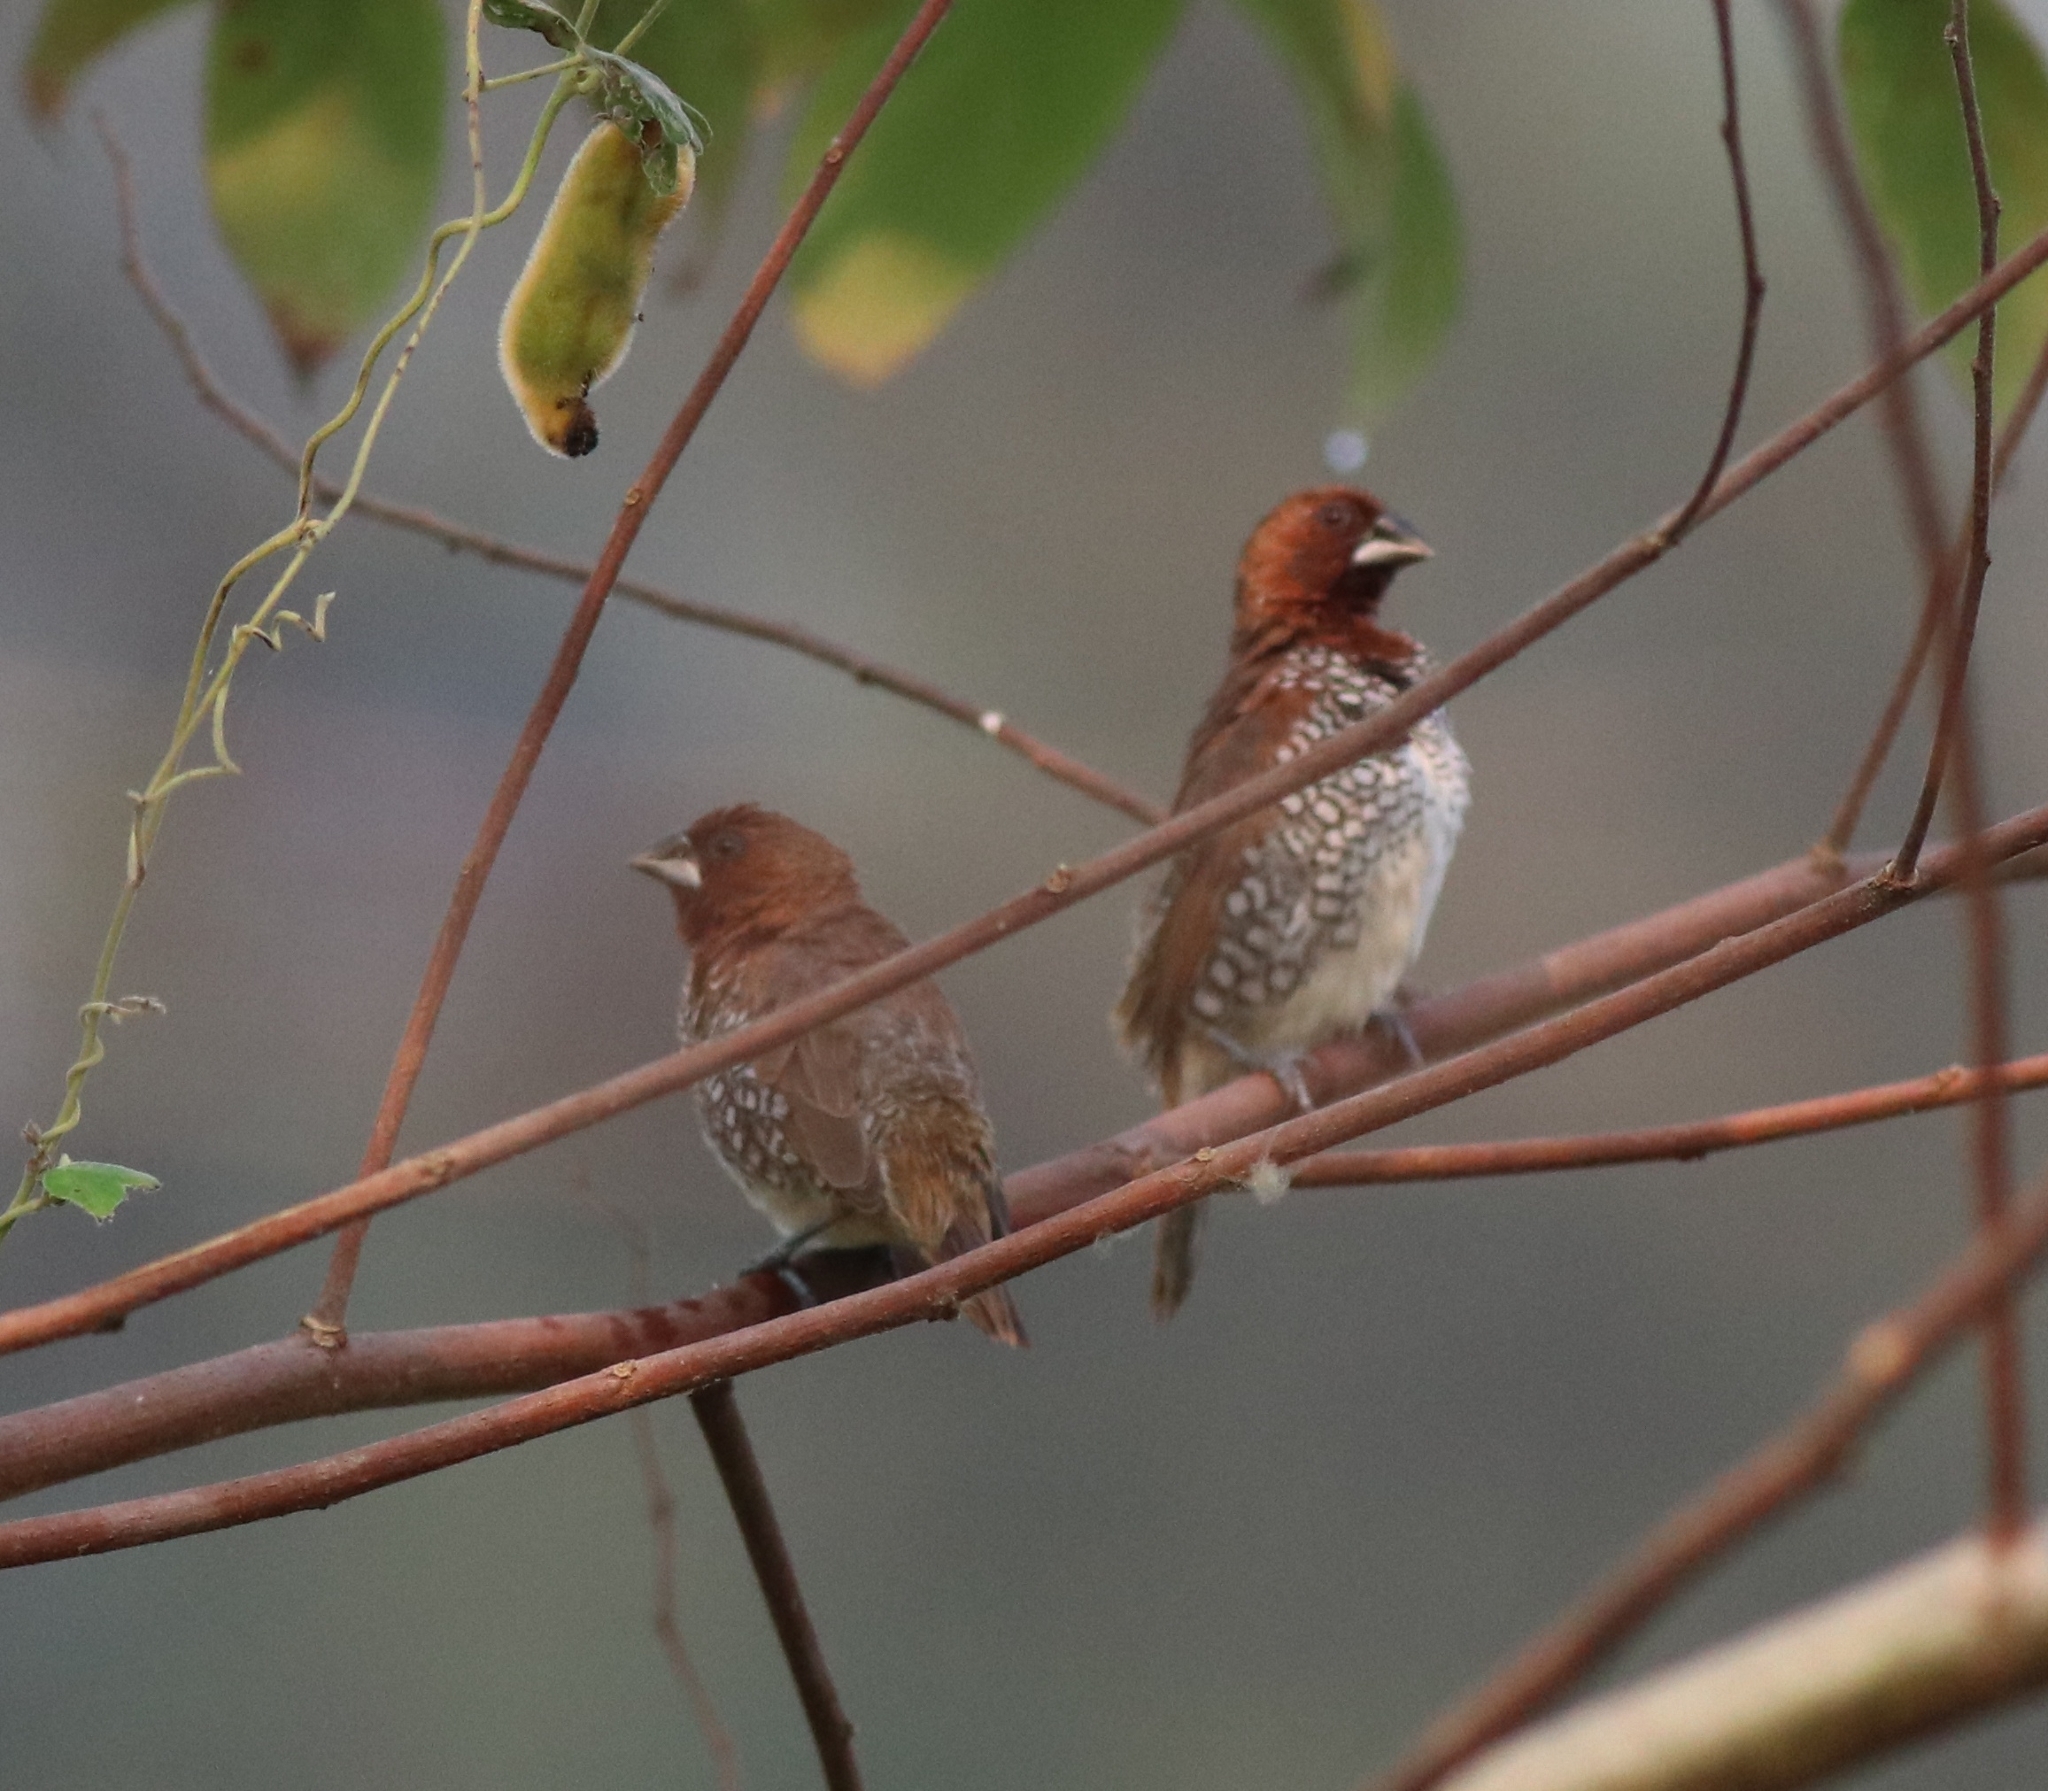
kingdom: Animalia
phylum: Chordata
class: Aves
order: Passeriformes
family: Estrildidae
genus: Lonchura
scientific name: Lonchura punctulata
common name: Scaly-breasted munia
